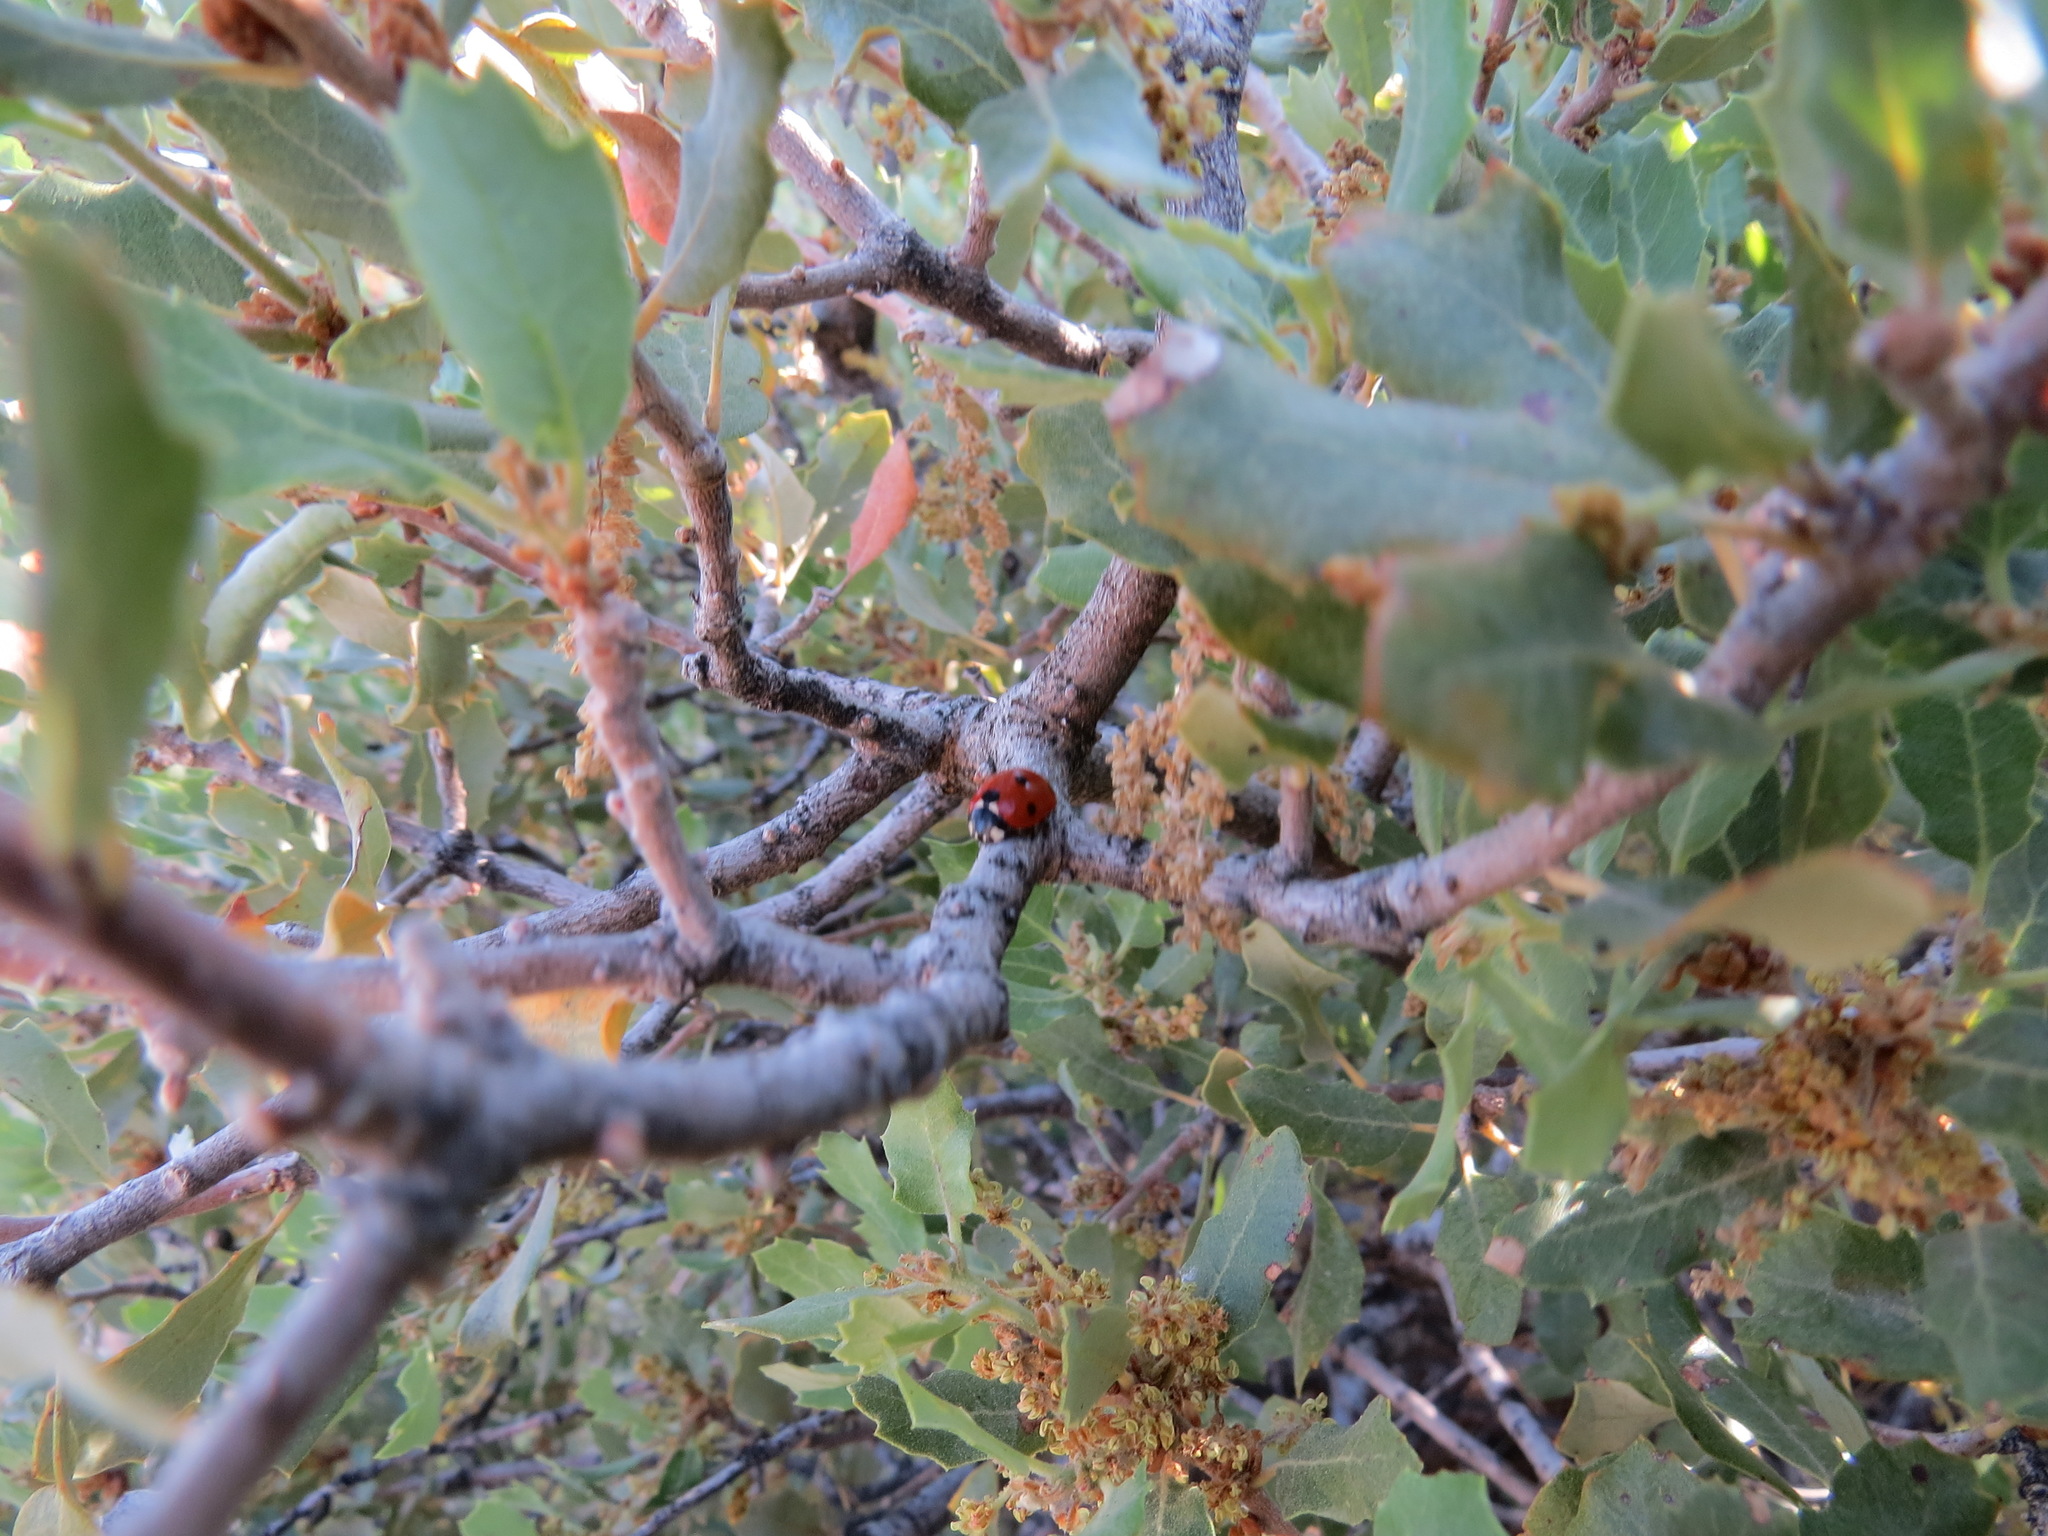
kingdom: Animalia
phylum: Arthropoda
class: Insecta
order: Coleoptera
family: Coccinellidae
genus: Coccinella
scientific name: Coccinella septempunctata
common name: Sevenspotted lady beetle
